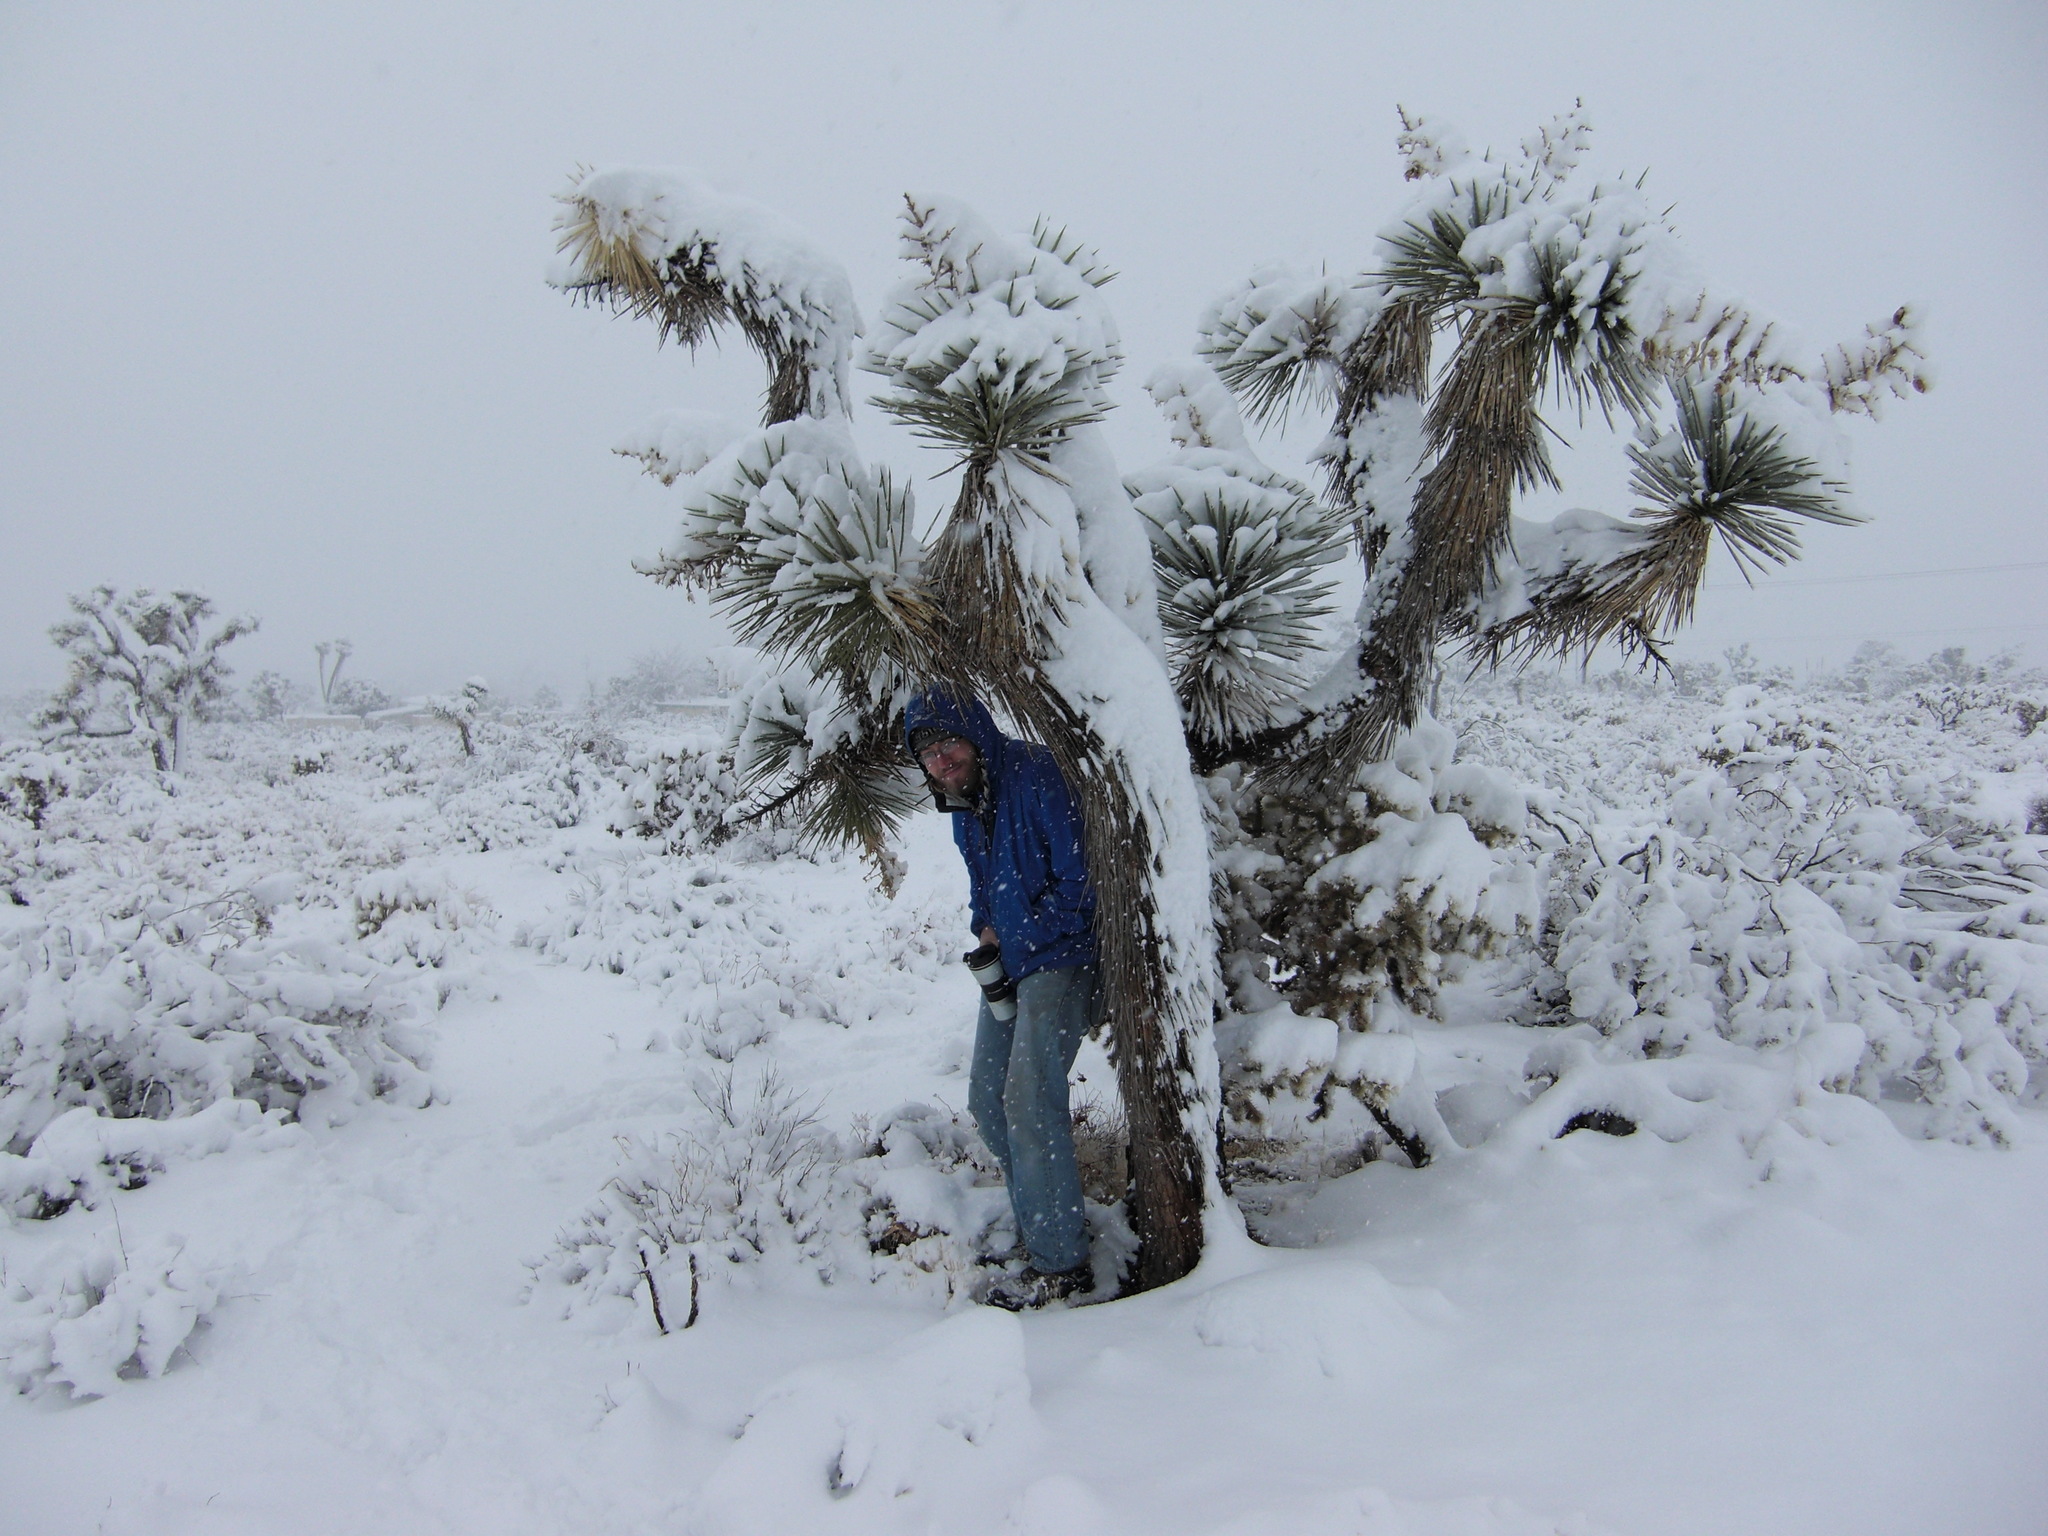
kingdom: Plantae
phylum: Tracheophyta
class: Liliopsida
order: Asparagales
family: Asparagaceae
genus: Yucca
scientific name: Yucca brevifolia
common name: Joshua tree
